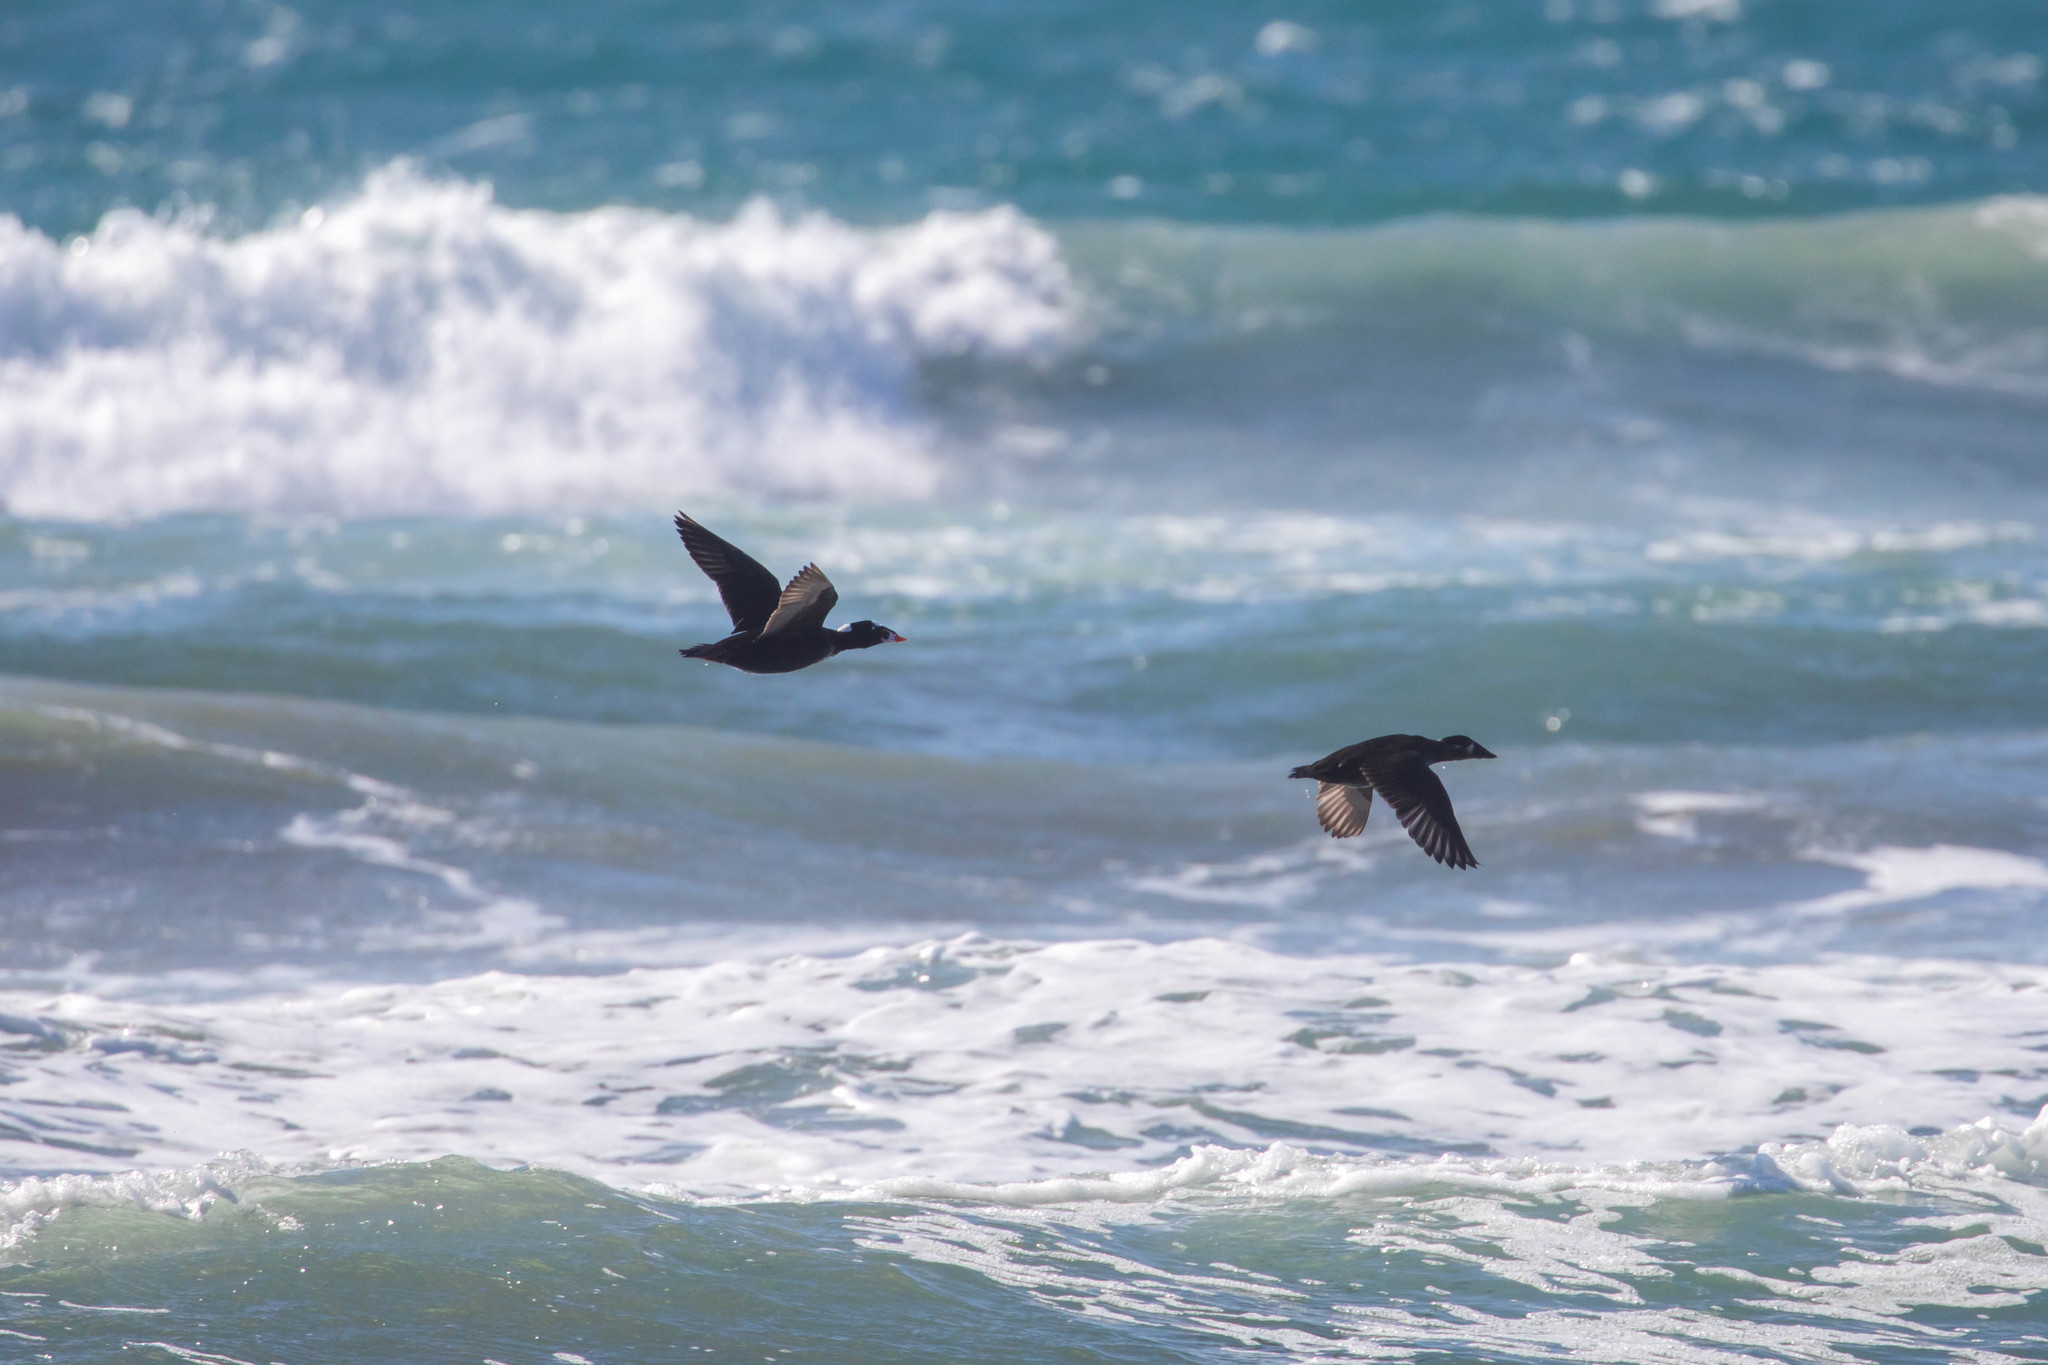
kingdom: Animalia
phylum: Chordata
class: Aves
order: Anseriformes
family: Anatidae
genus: Melanitta
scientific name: Melanitta perspicillata
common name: Surf scoter
